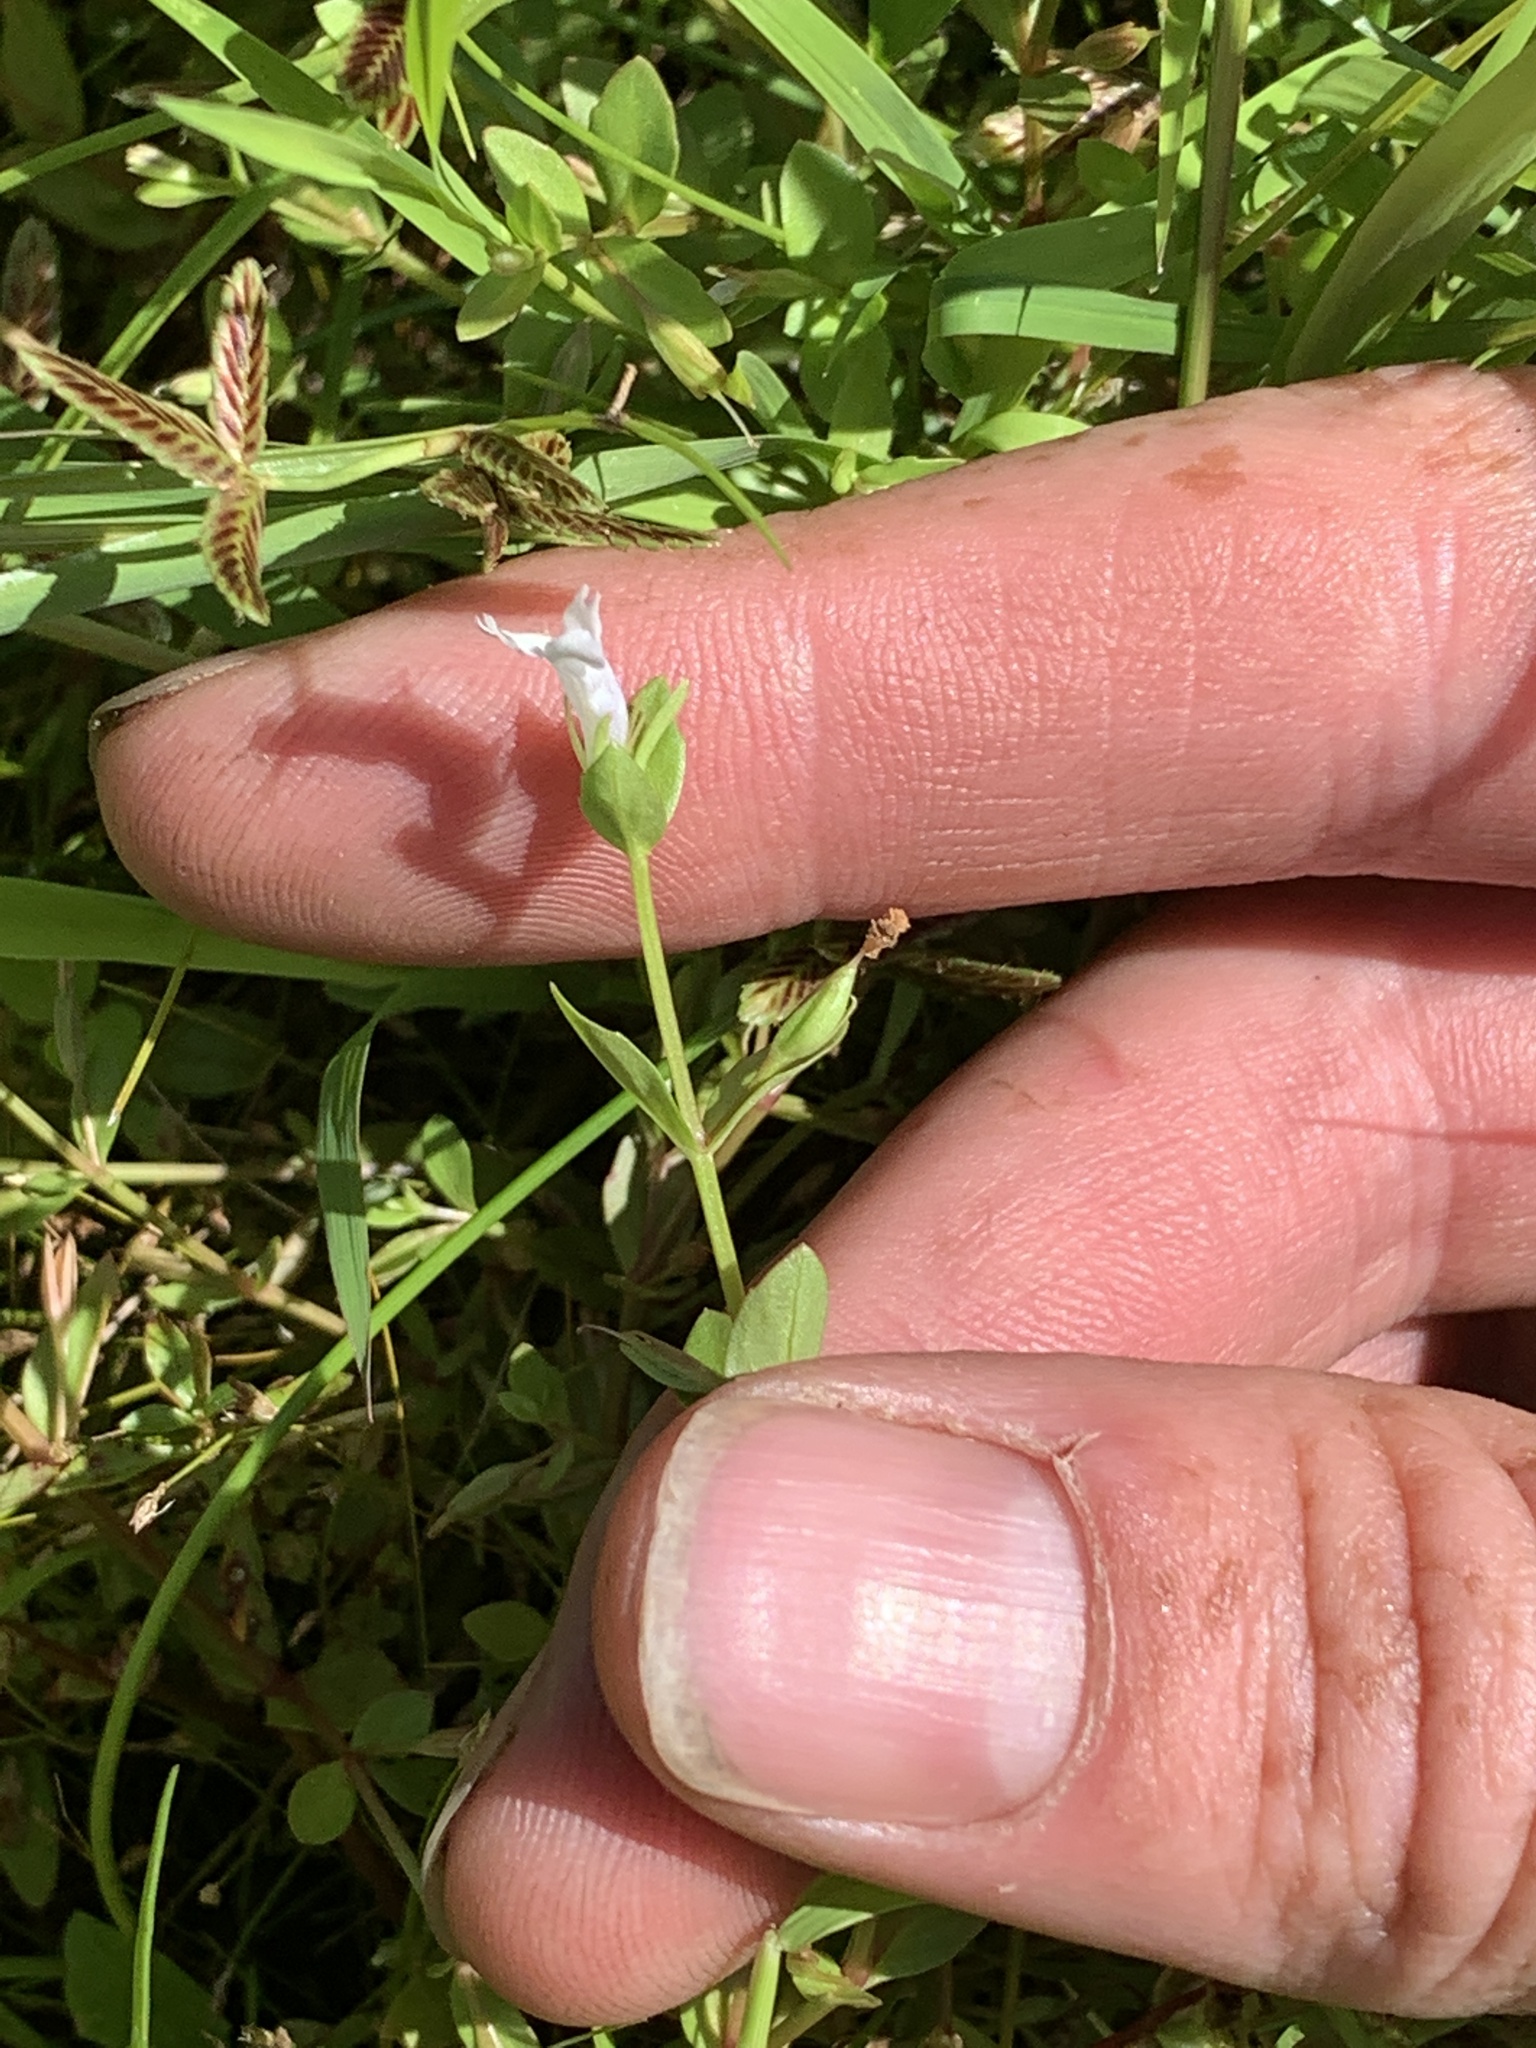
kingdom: Plantae
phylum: Tracheophyta
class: Magnoliopsida
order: Lamiales
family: Linderniaceae
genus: Lindernia
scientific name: Lindernia dubia
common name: Annual false pimpernel
